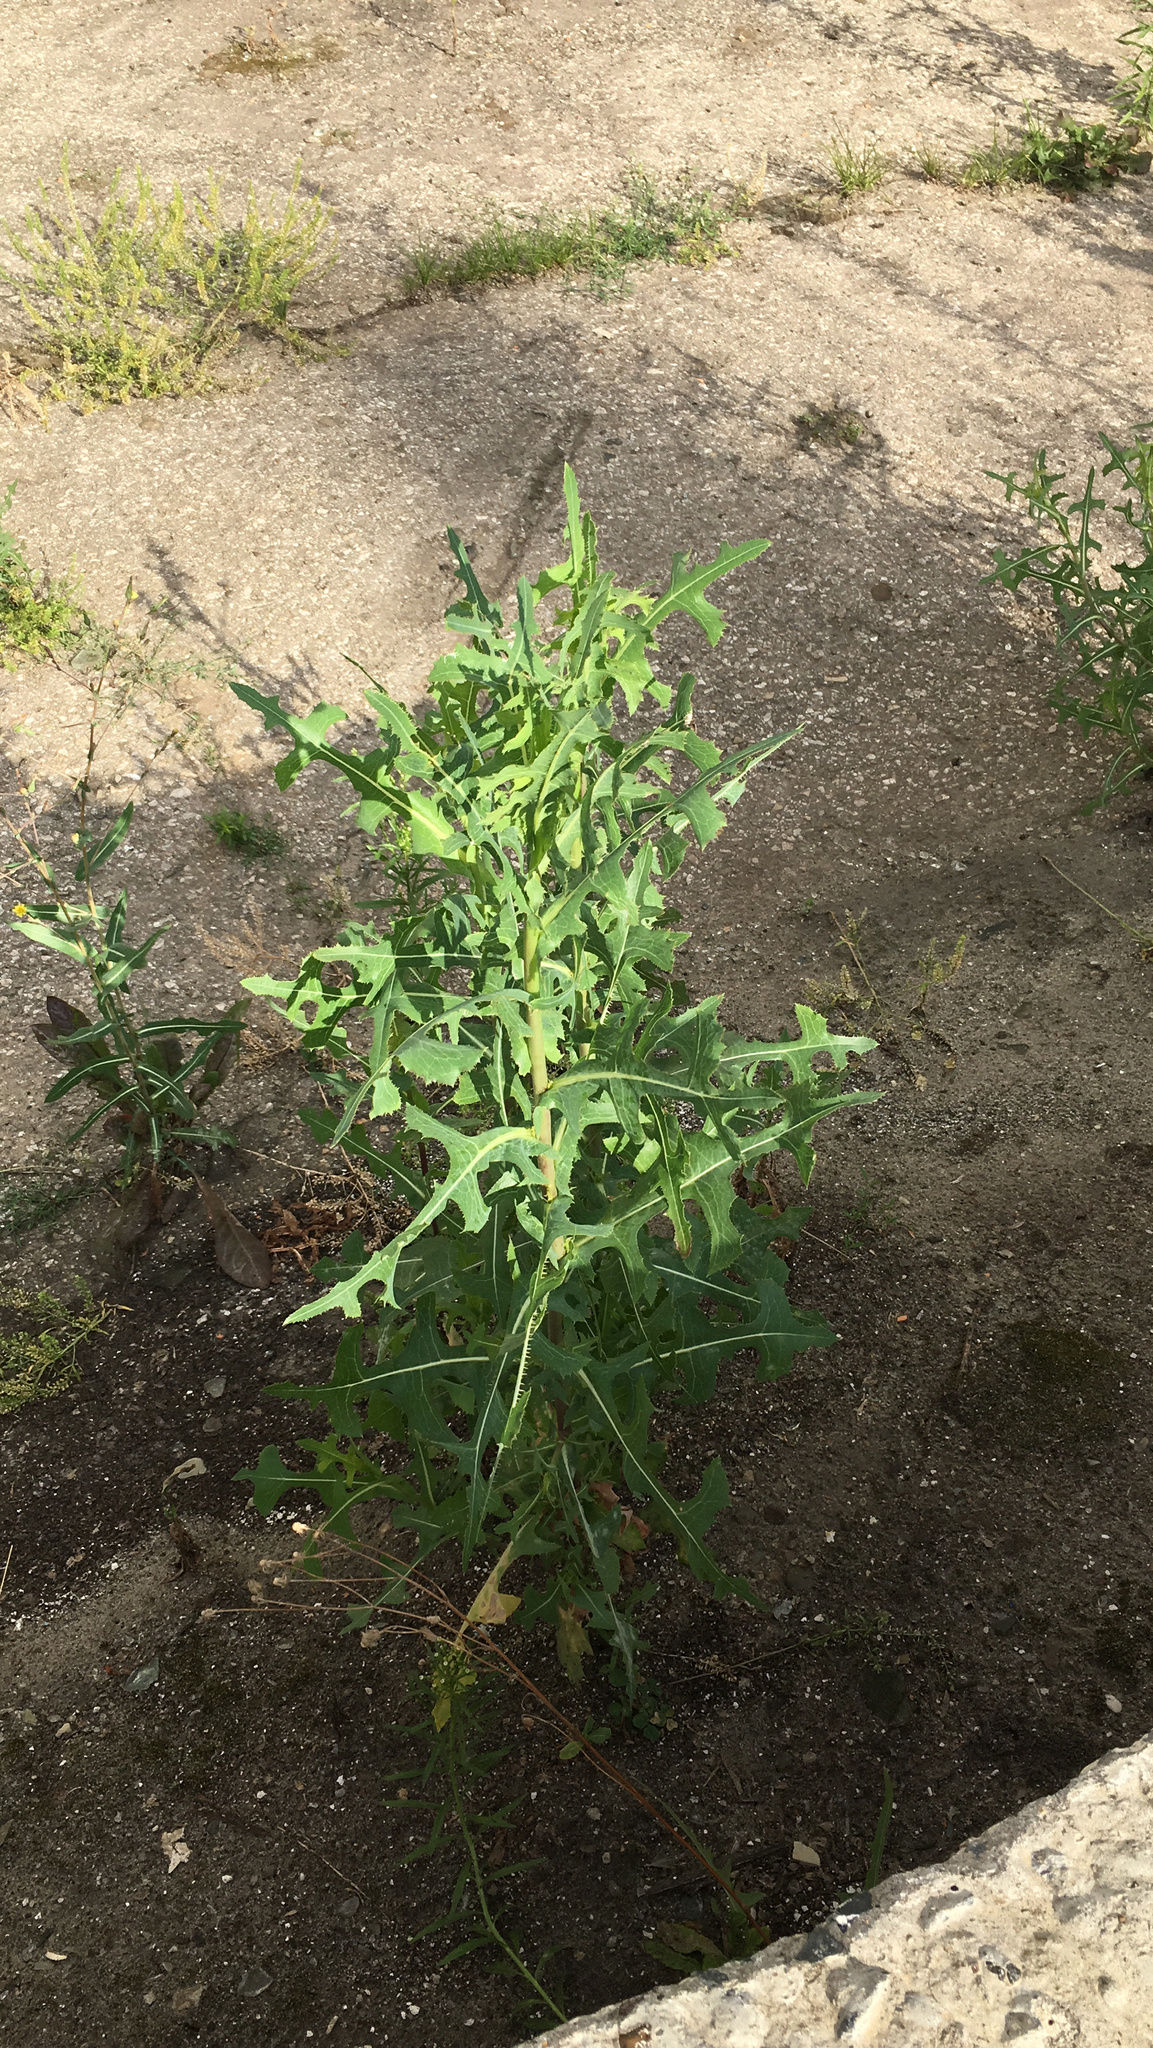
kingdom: Plantae
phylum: Tracheophyta
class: Magnoliopsida
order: Asterales
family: Asteraceae
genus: Lactuca
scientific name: Lactuca serriola
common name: Prickly lettuce
